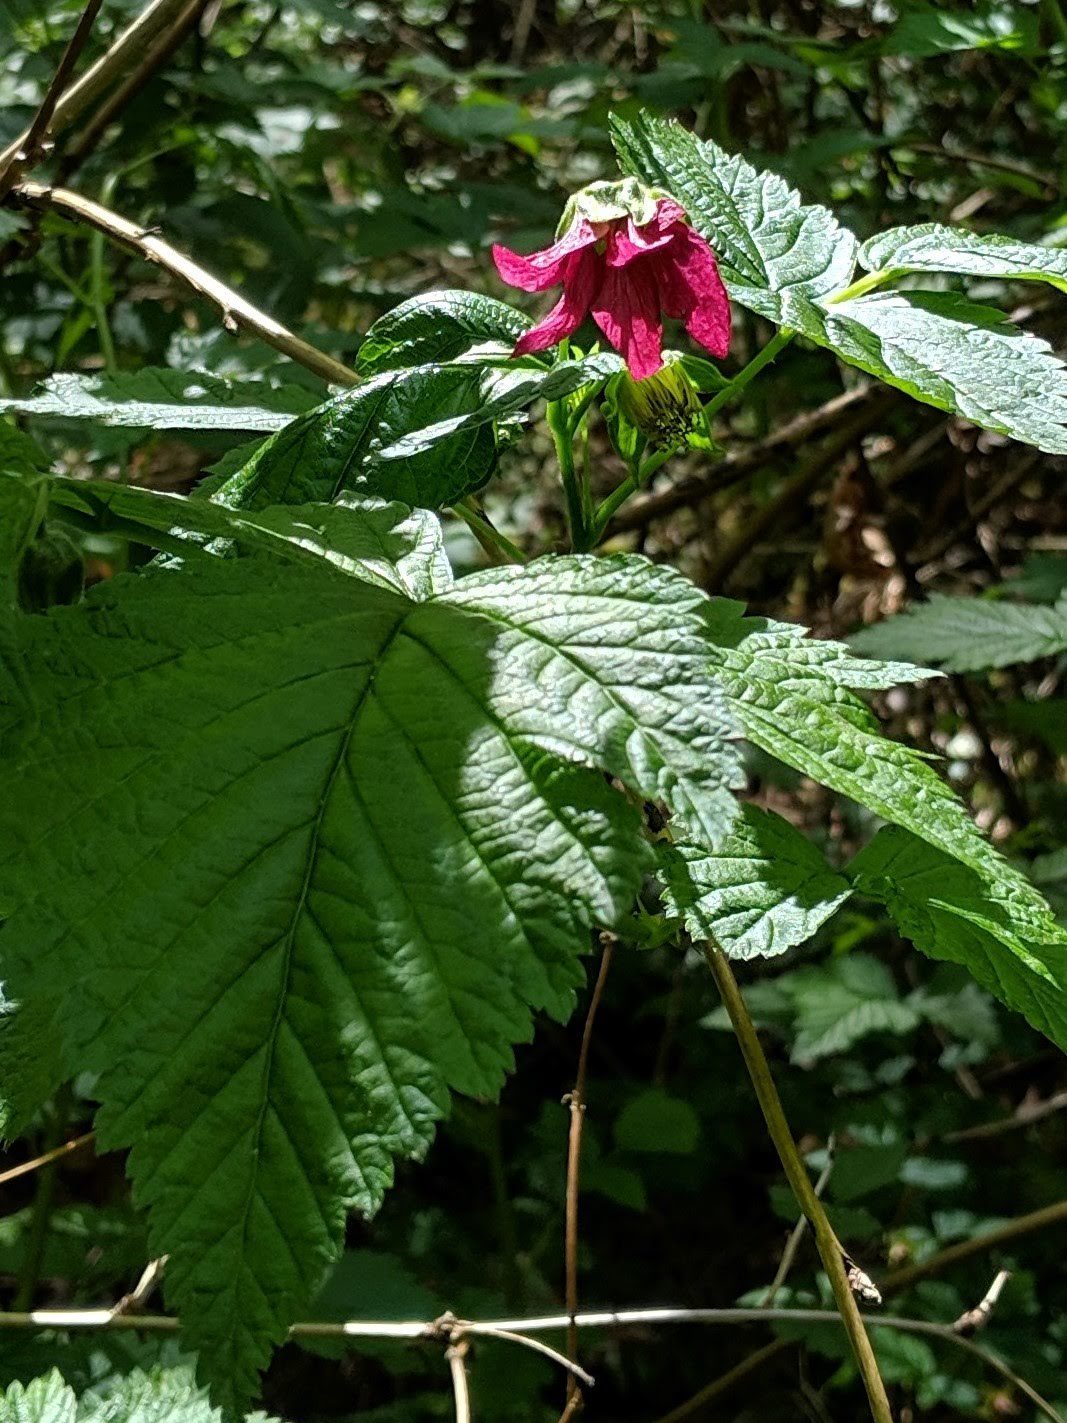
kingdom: Plantae
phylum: Tracheophyta
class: Magnoliopsida
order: Rosales
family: Rosaceae
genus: Rubus
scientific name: Rubus spectabilis
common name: Salmonberry
